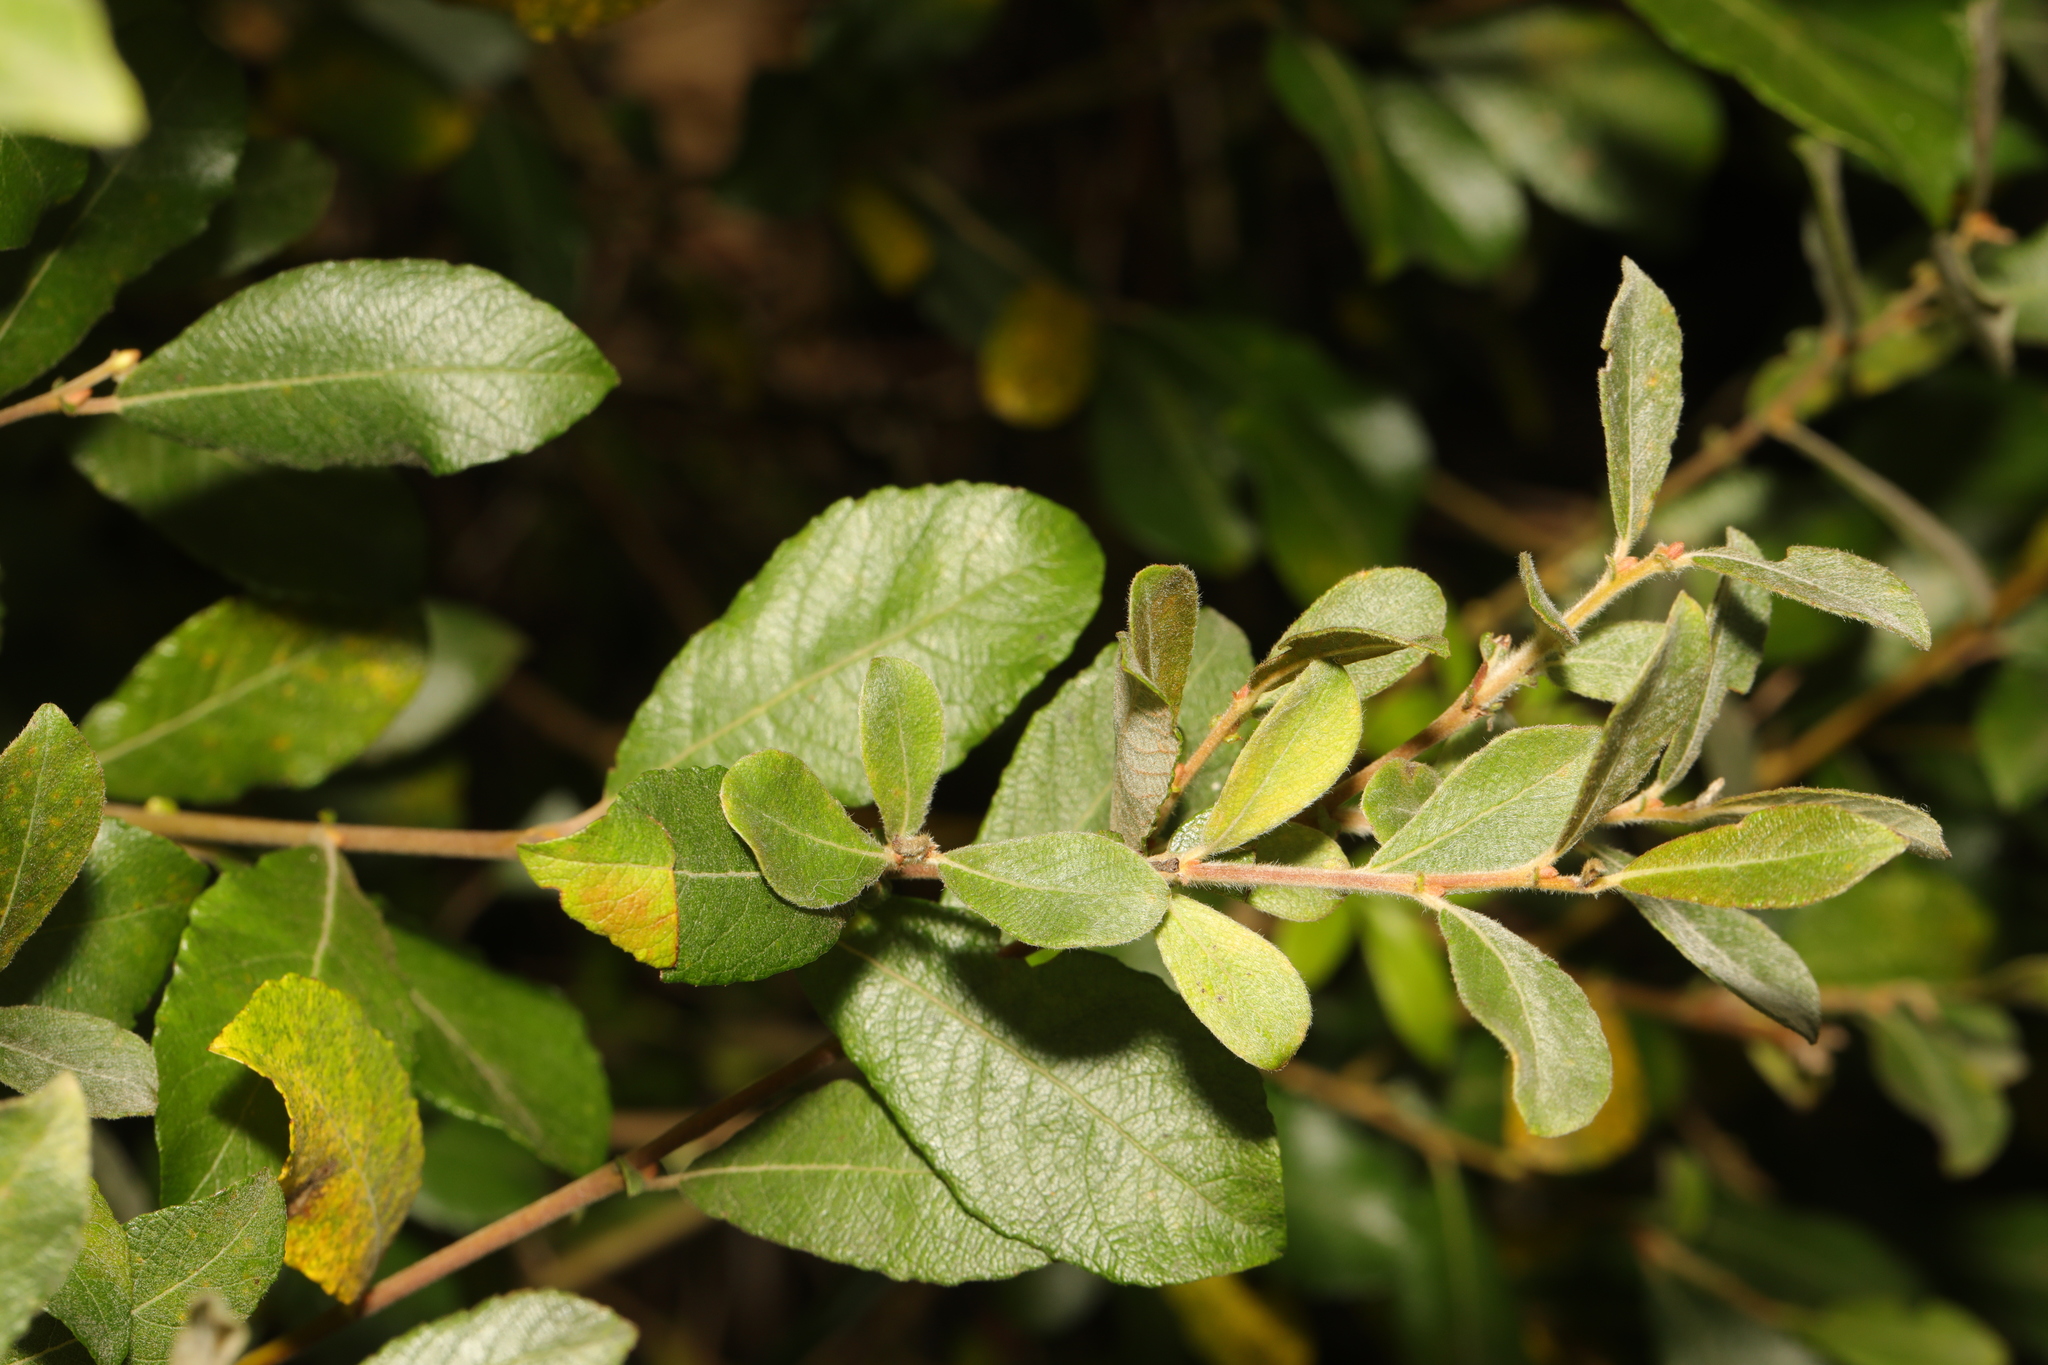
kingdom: Plantae
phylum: Tracheophyta
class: Magnoliopsida
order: Malpighiales
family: Salicaceae
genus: Salix
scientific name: Salix atrocinerea
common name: Rusty willow
